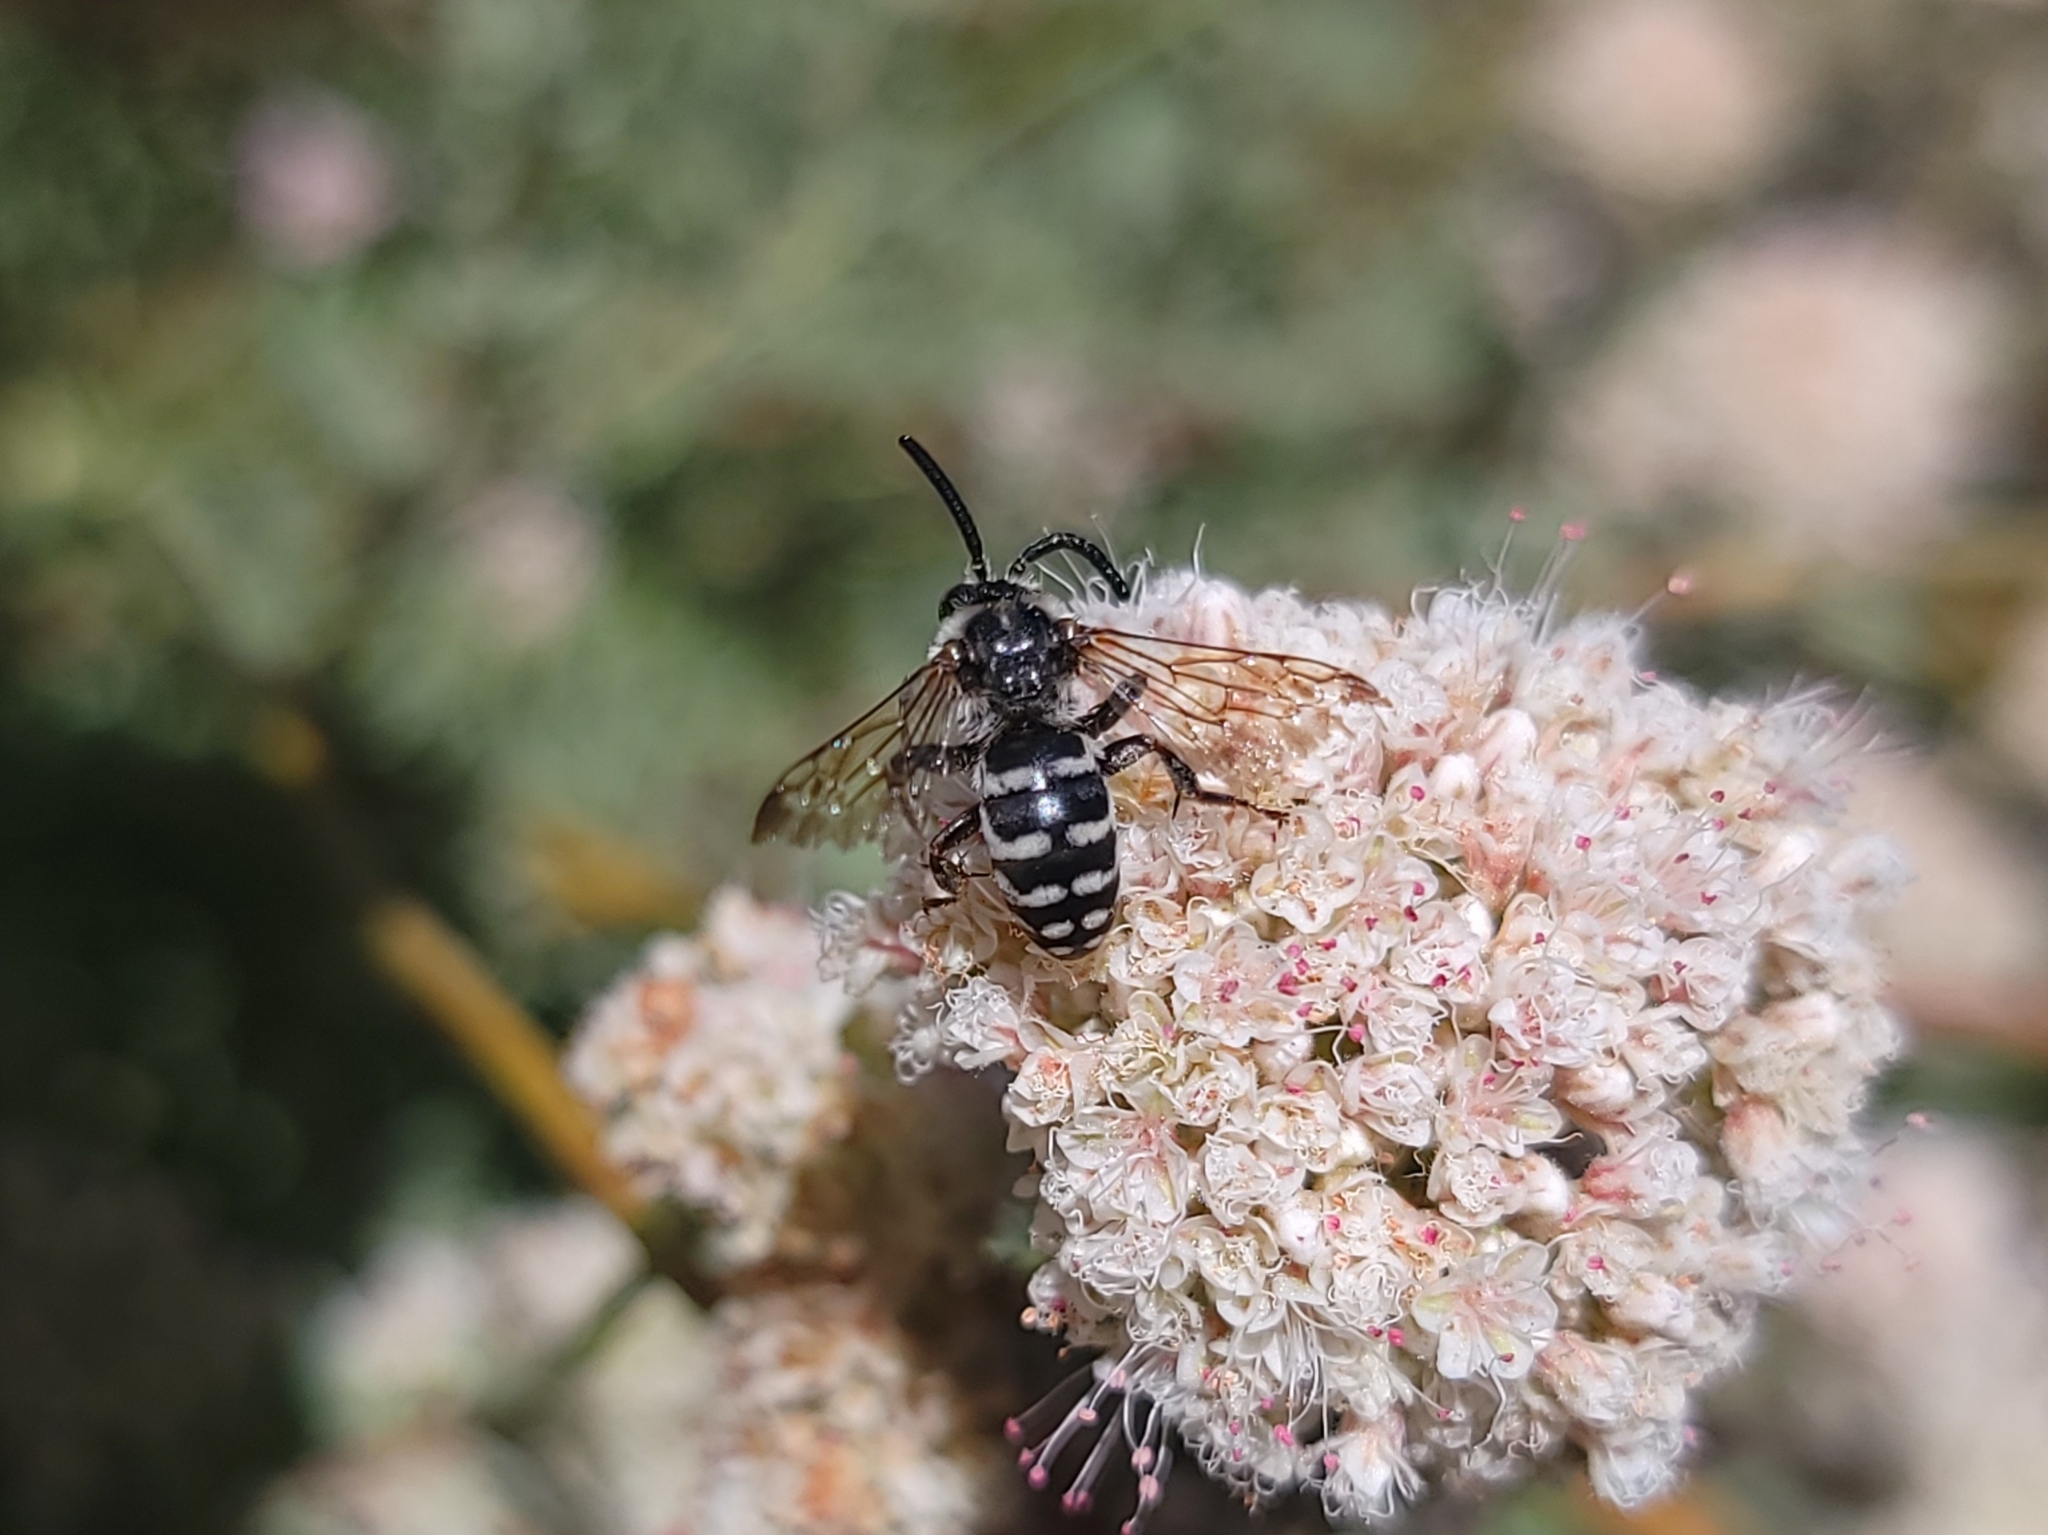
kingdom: Animalia
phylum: Arthropoda
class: Insecta
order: Hymenoptera
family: Apidae
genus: Brachymelecta
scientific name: Brachymelecta californica
